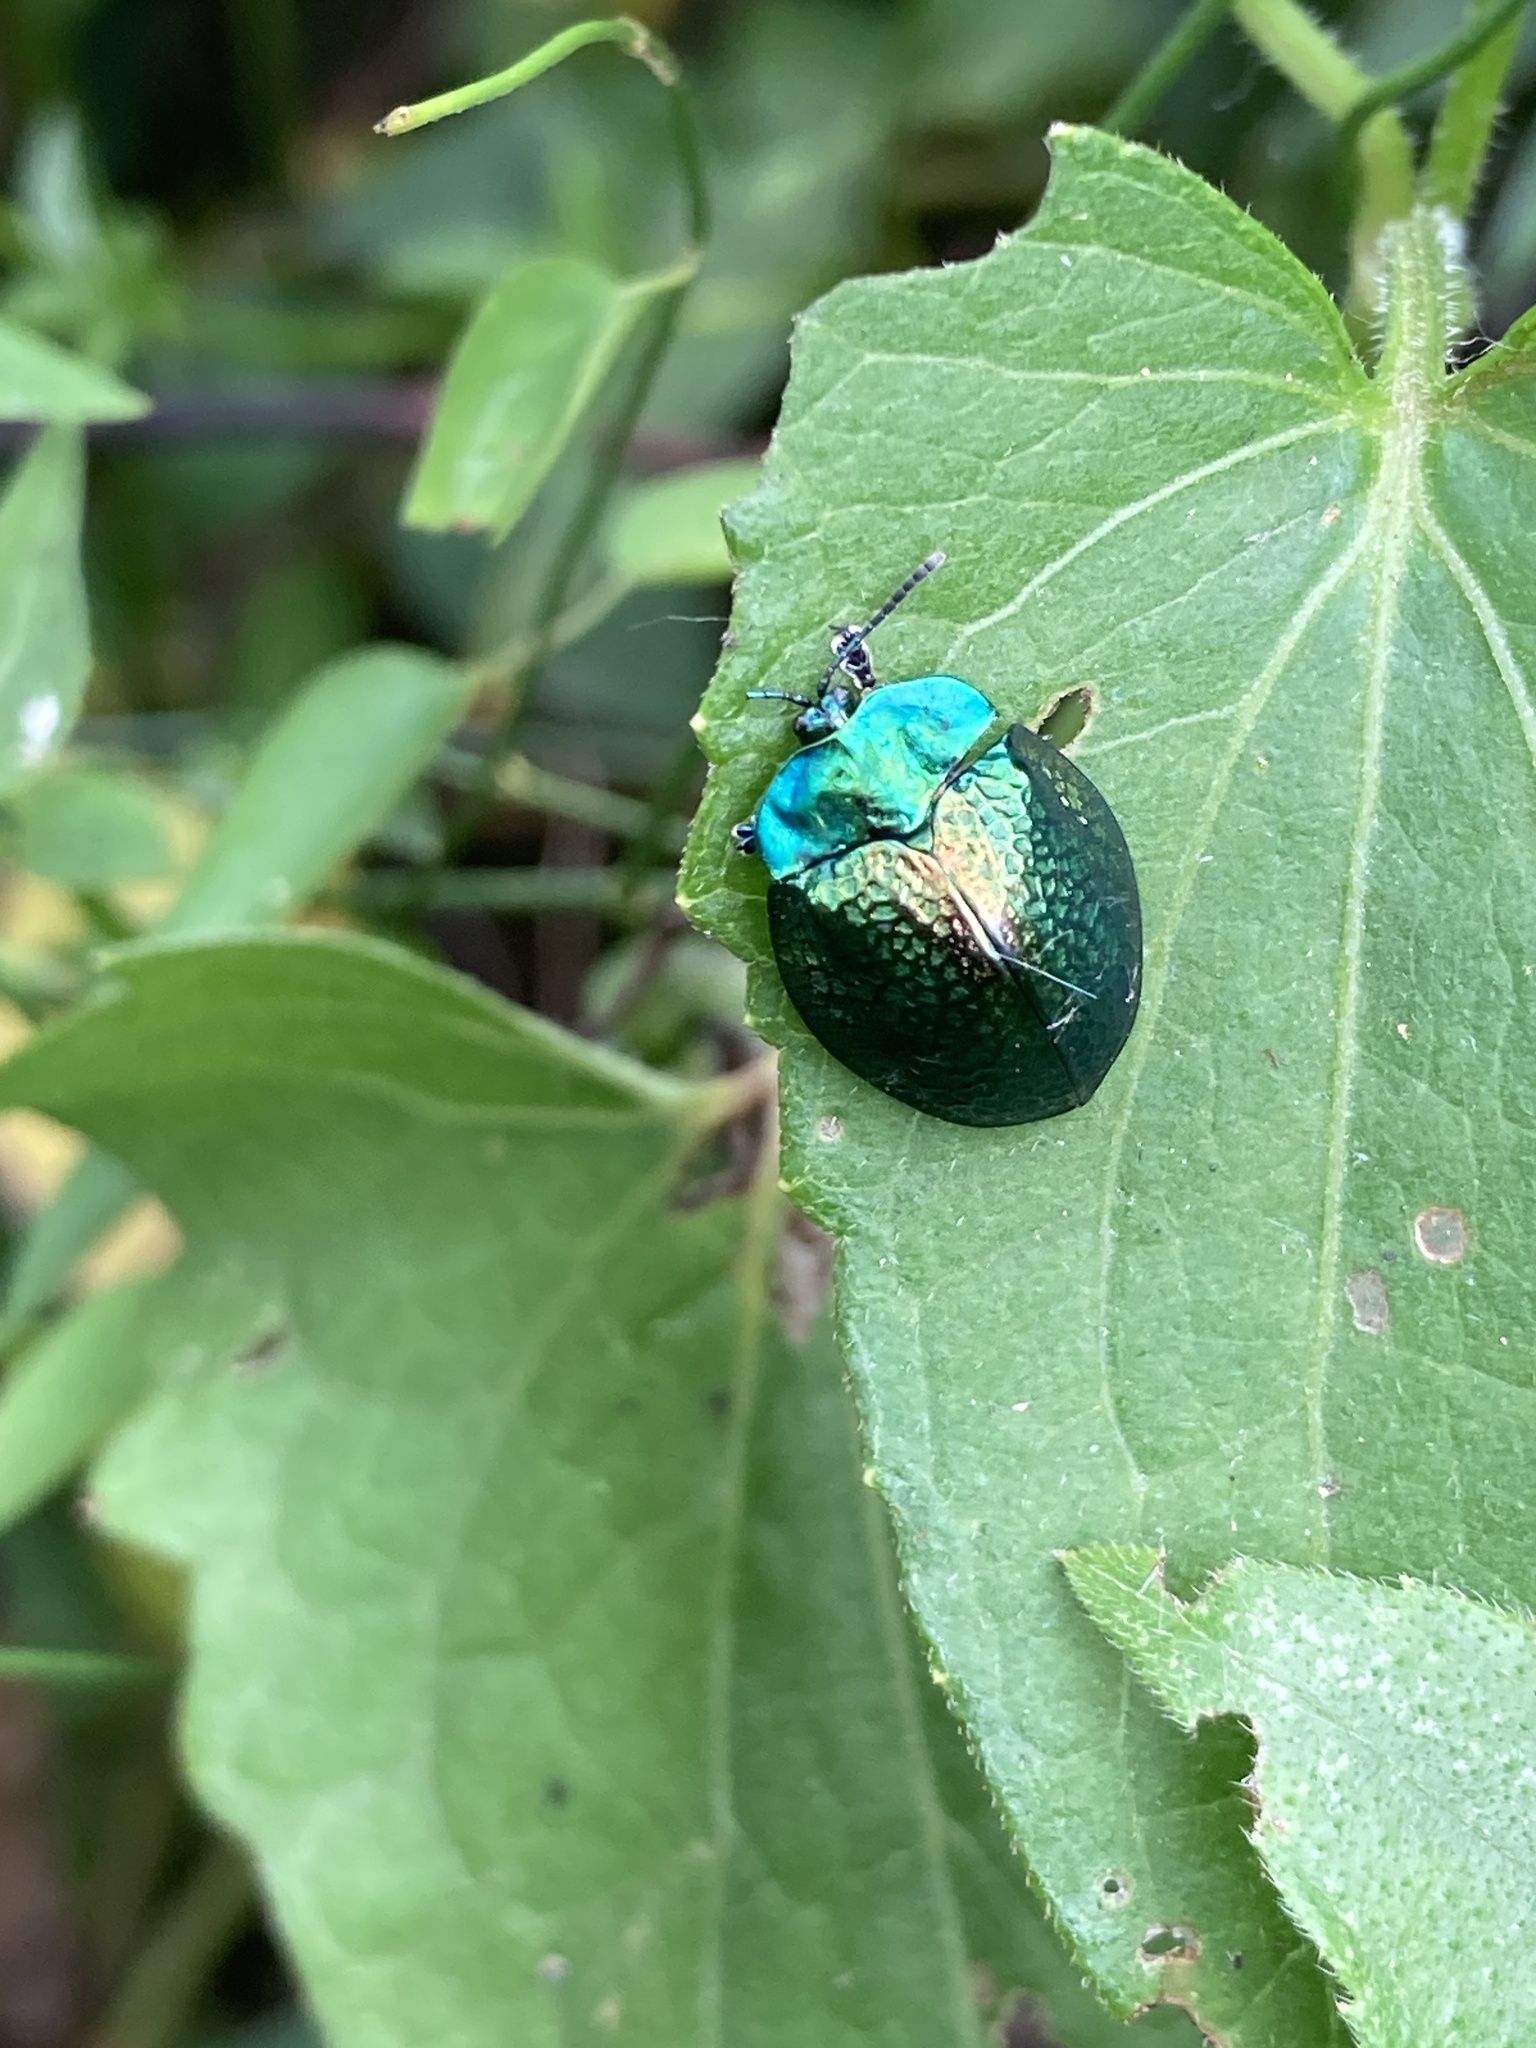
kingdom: Animalia
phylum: Arthropoda
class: Insecta
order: Coleoptera
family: Chrysomelidae
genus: Stolas
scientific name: Stolas festiva
